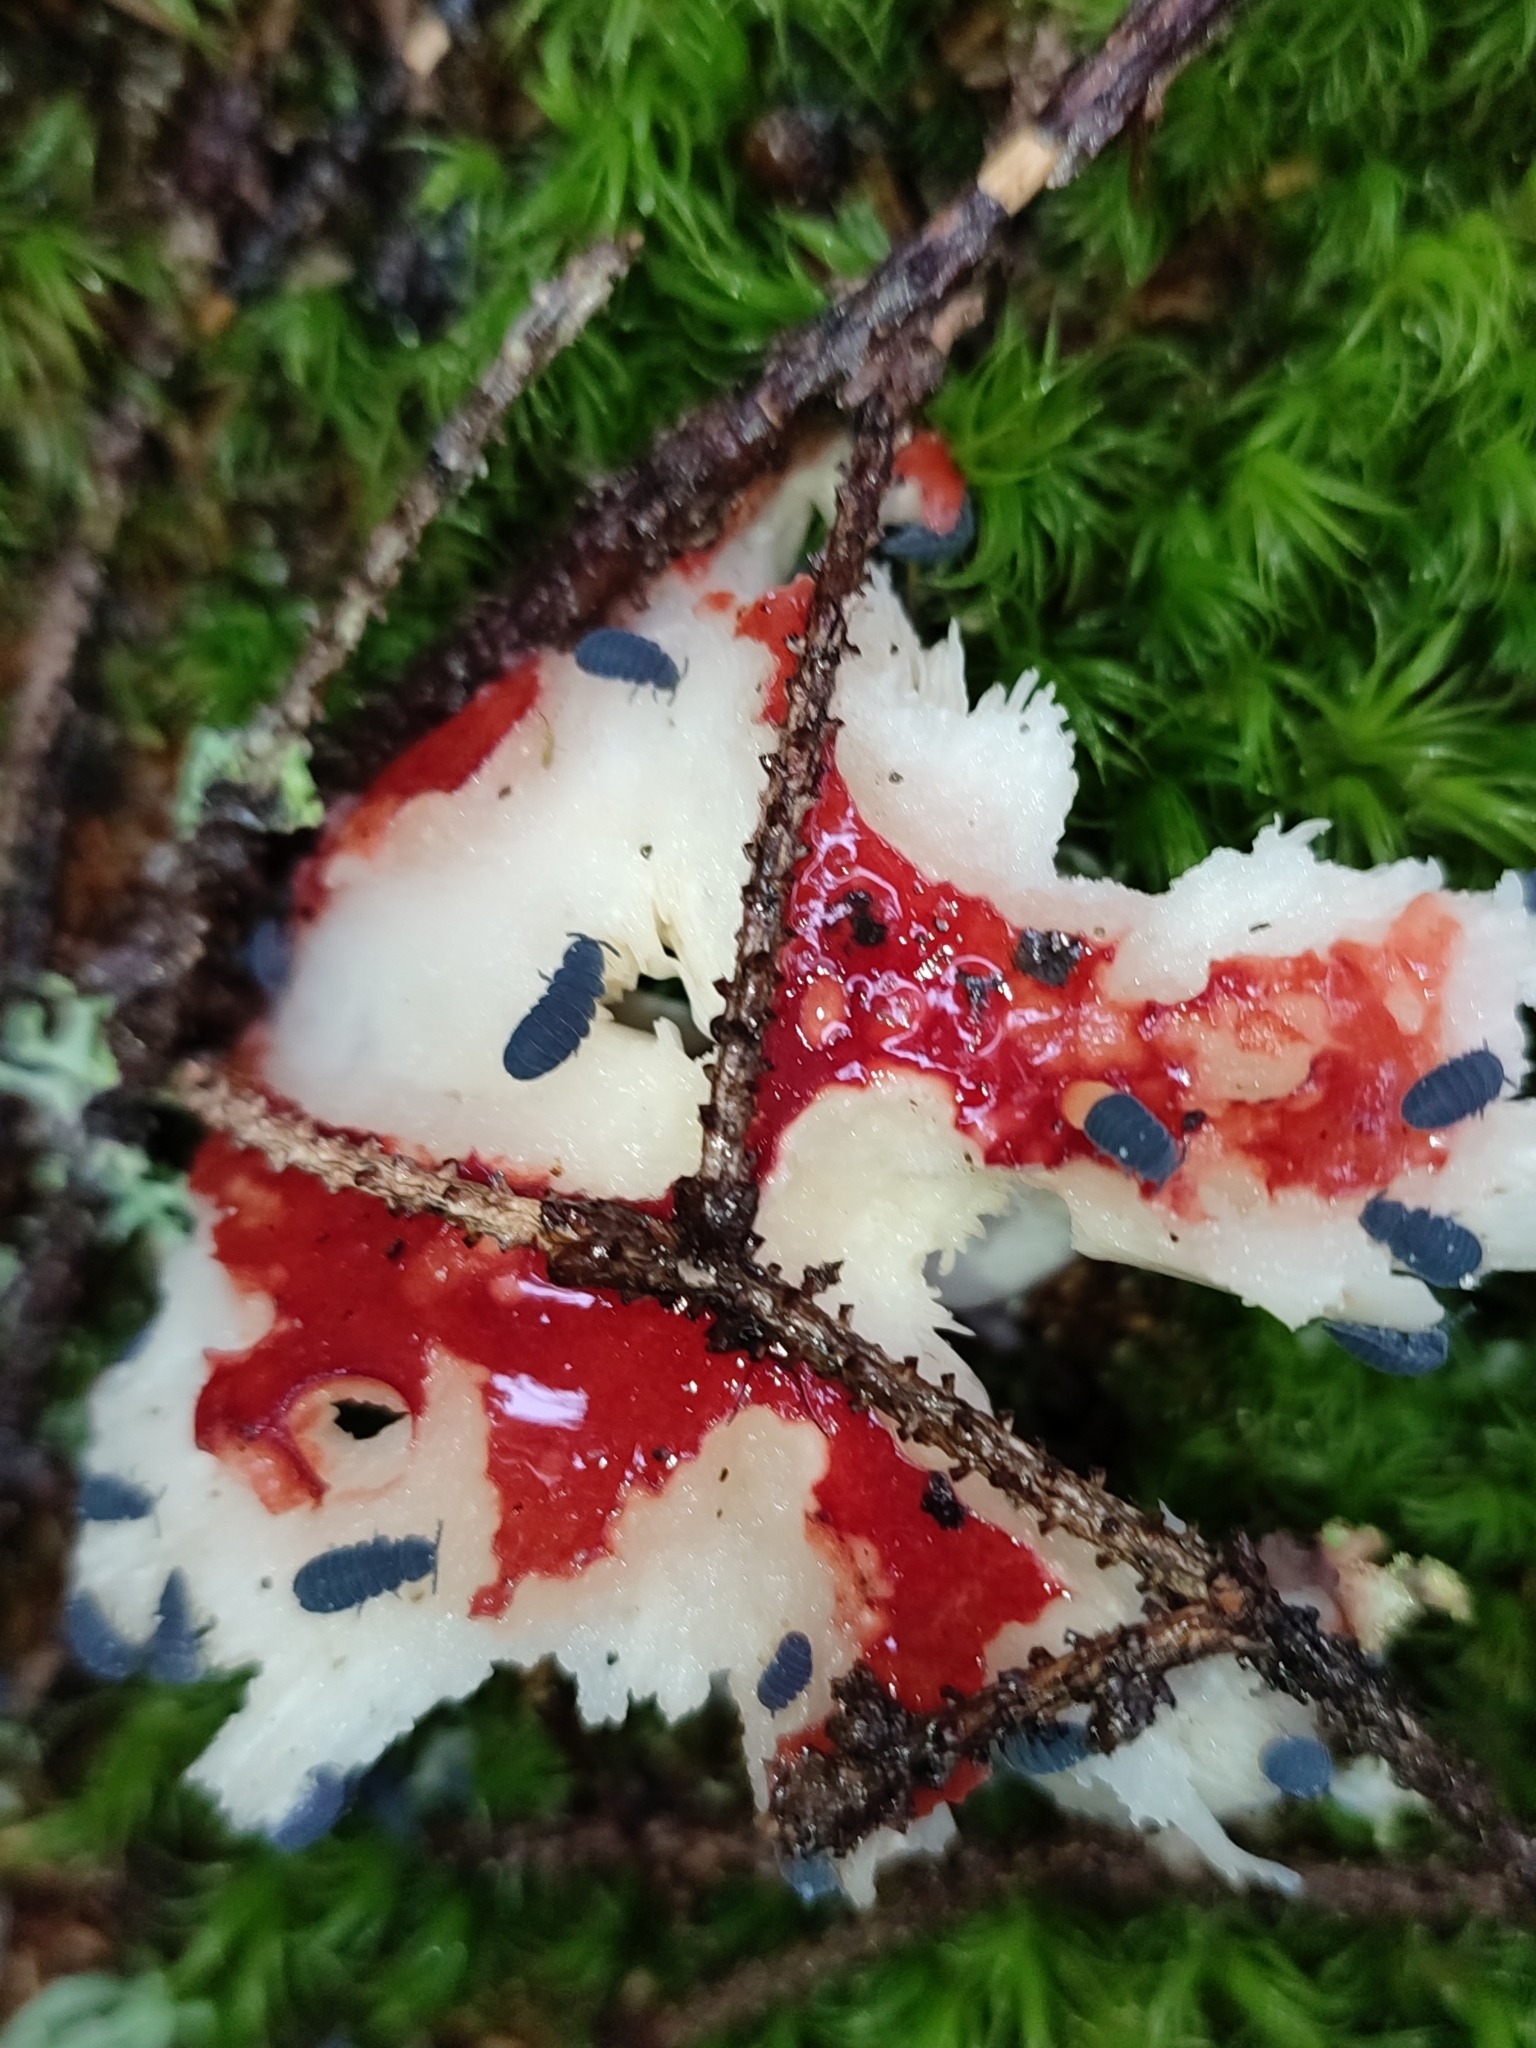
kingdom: Animalia
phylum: Arthropoda
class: Collembola
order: Poduromorpha
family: Onychiuridae
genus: Tetrodontophora
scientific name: Tetrodontophora bielanensis
